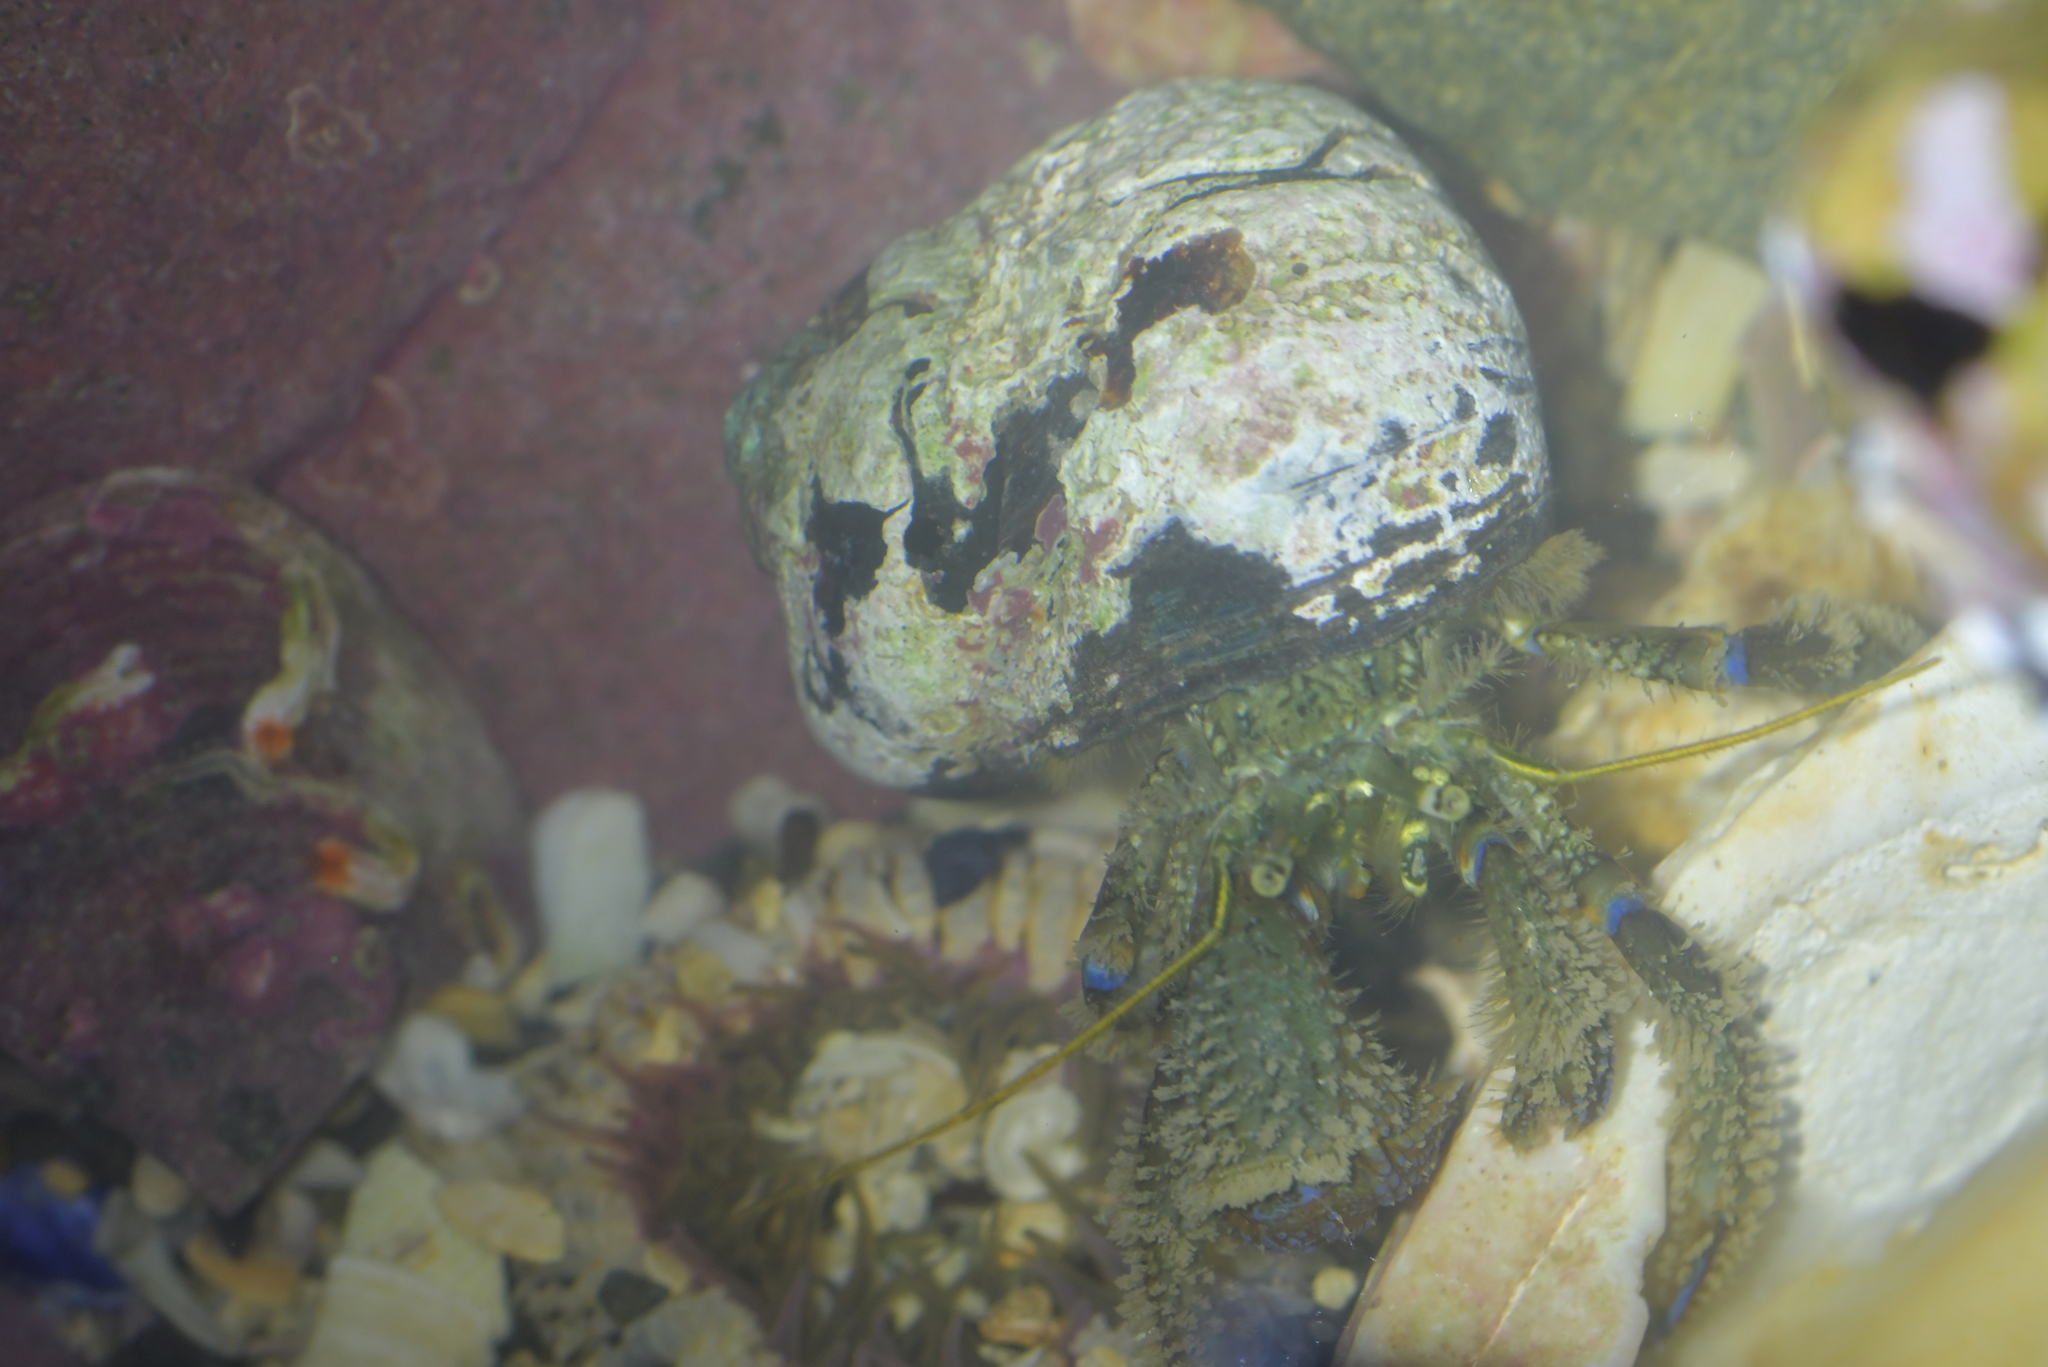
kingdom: Animalia
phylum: Arthropoda
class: Malacostraca
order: Decapoda
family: Paguridae
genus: Pagurus
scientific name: Pagurus novizealandiae
